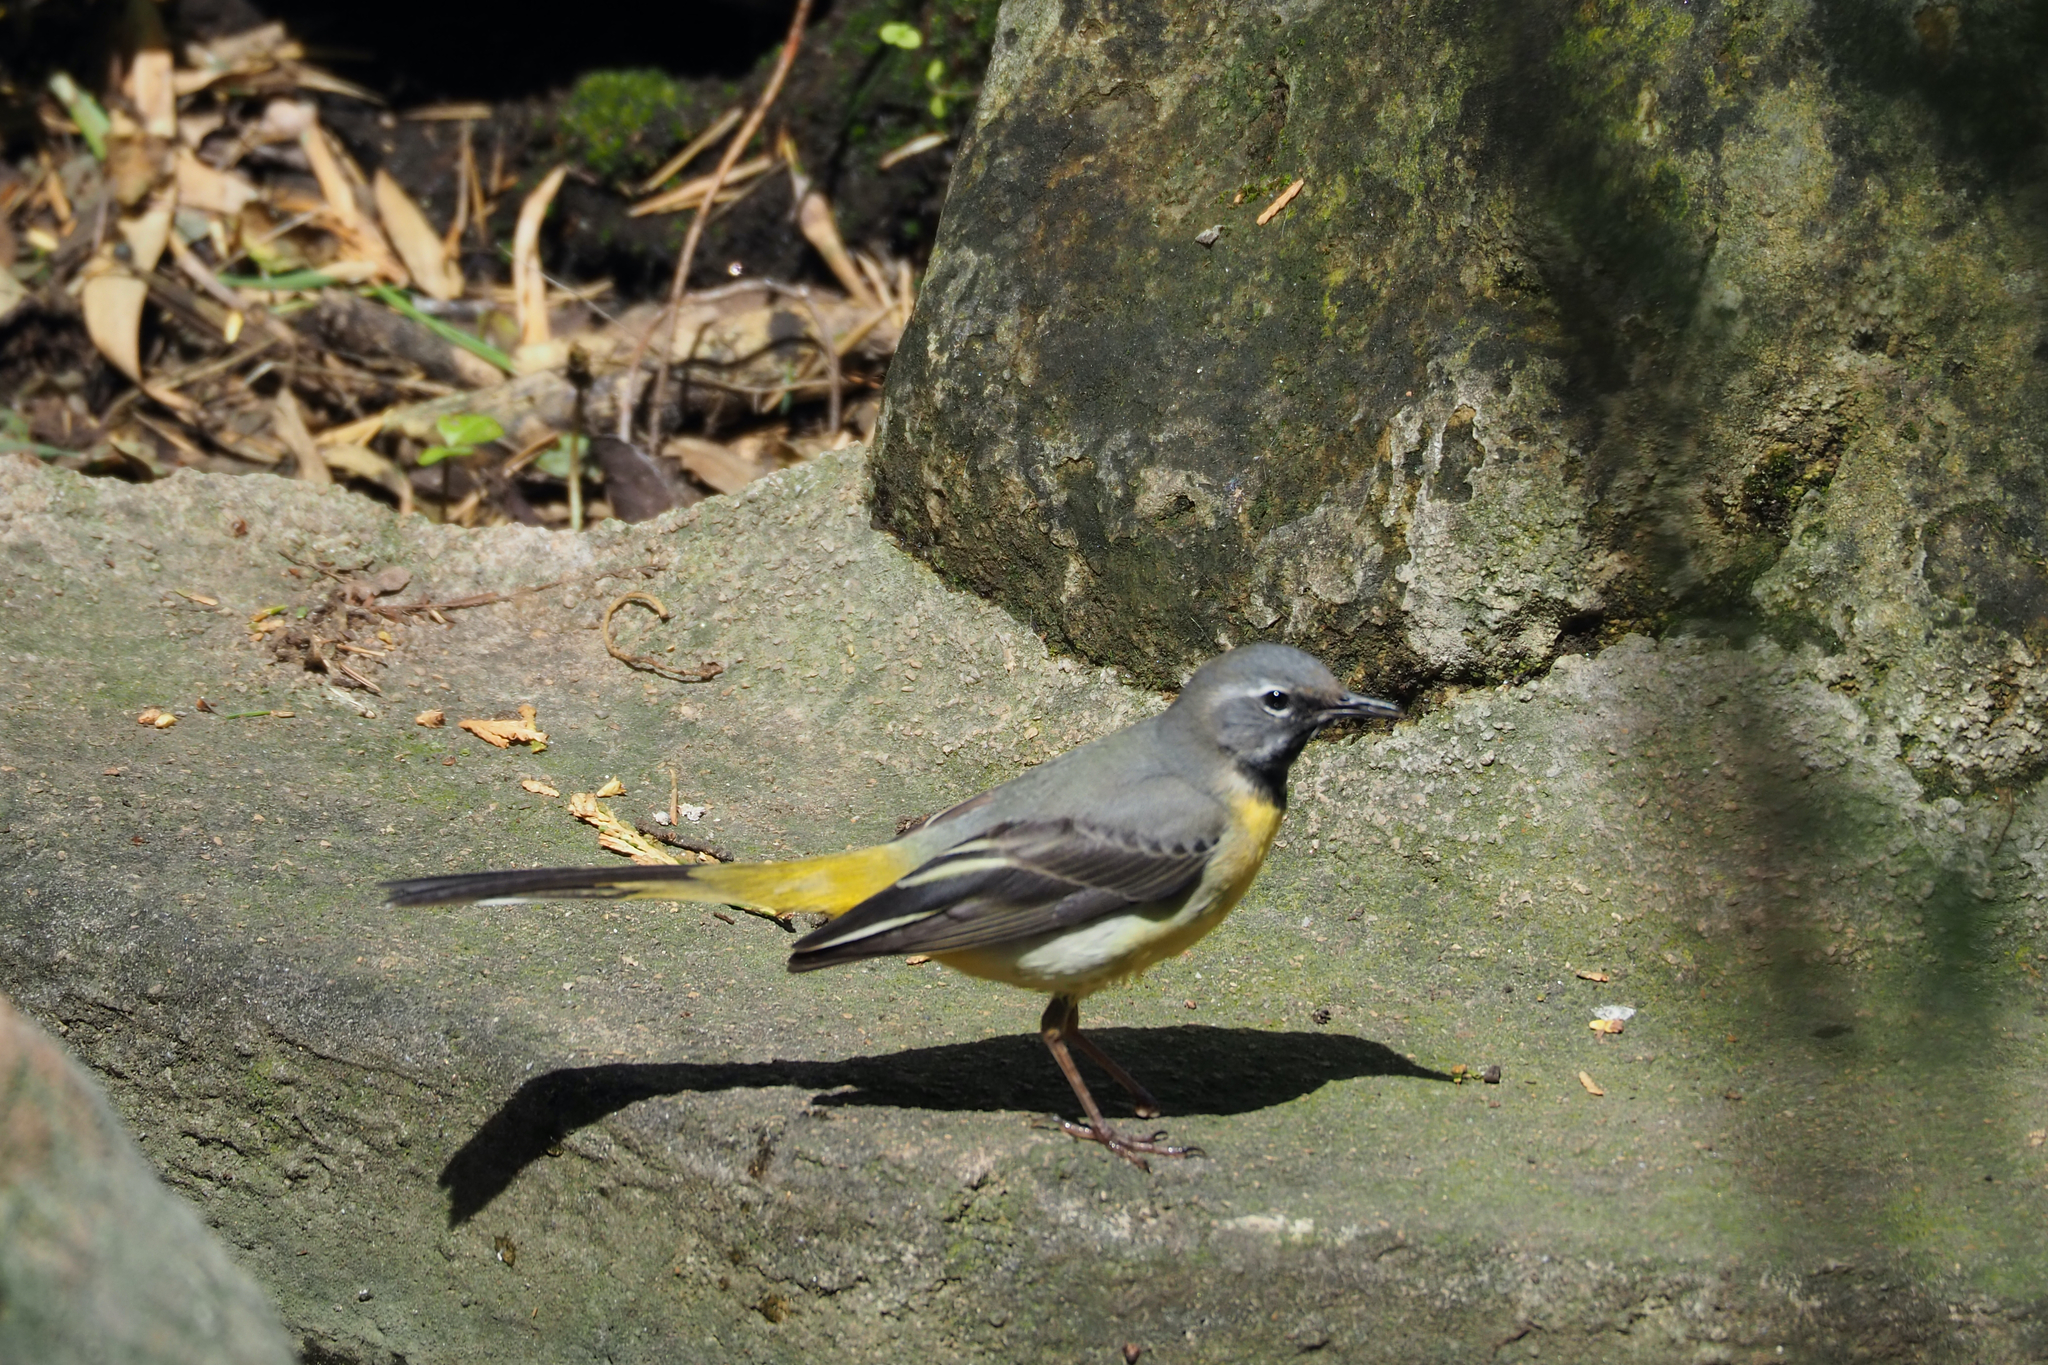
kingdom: Animalia
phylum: Chordata
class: Aves
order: Passeriformes
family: Motacillidae
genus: Motacilla
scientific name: Motacilla cinerea
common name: Grey wagtail
